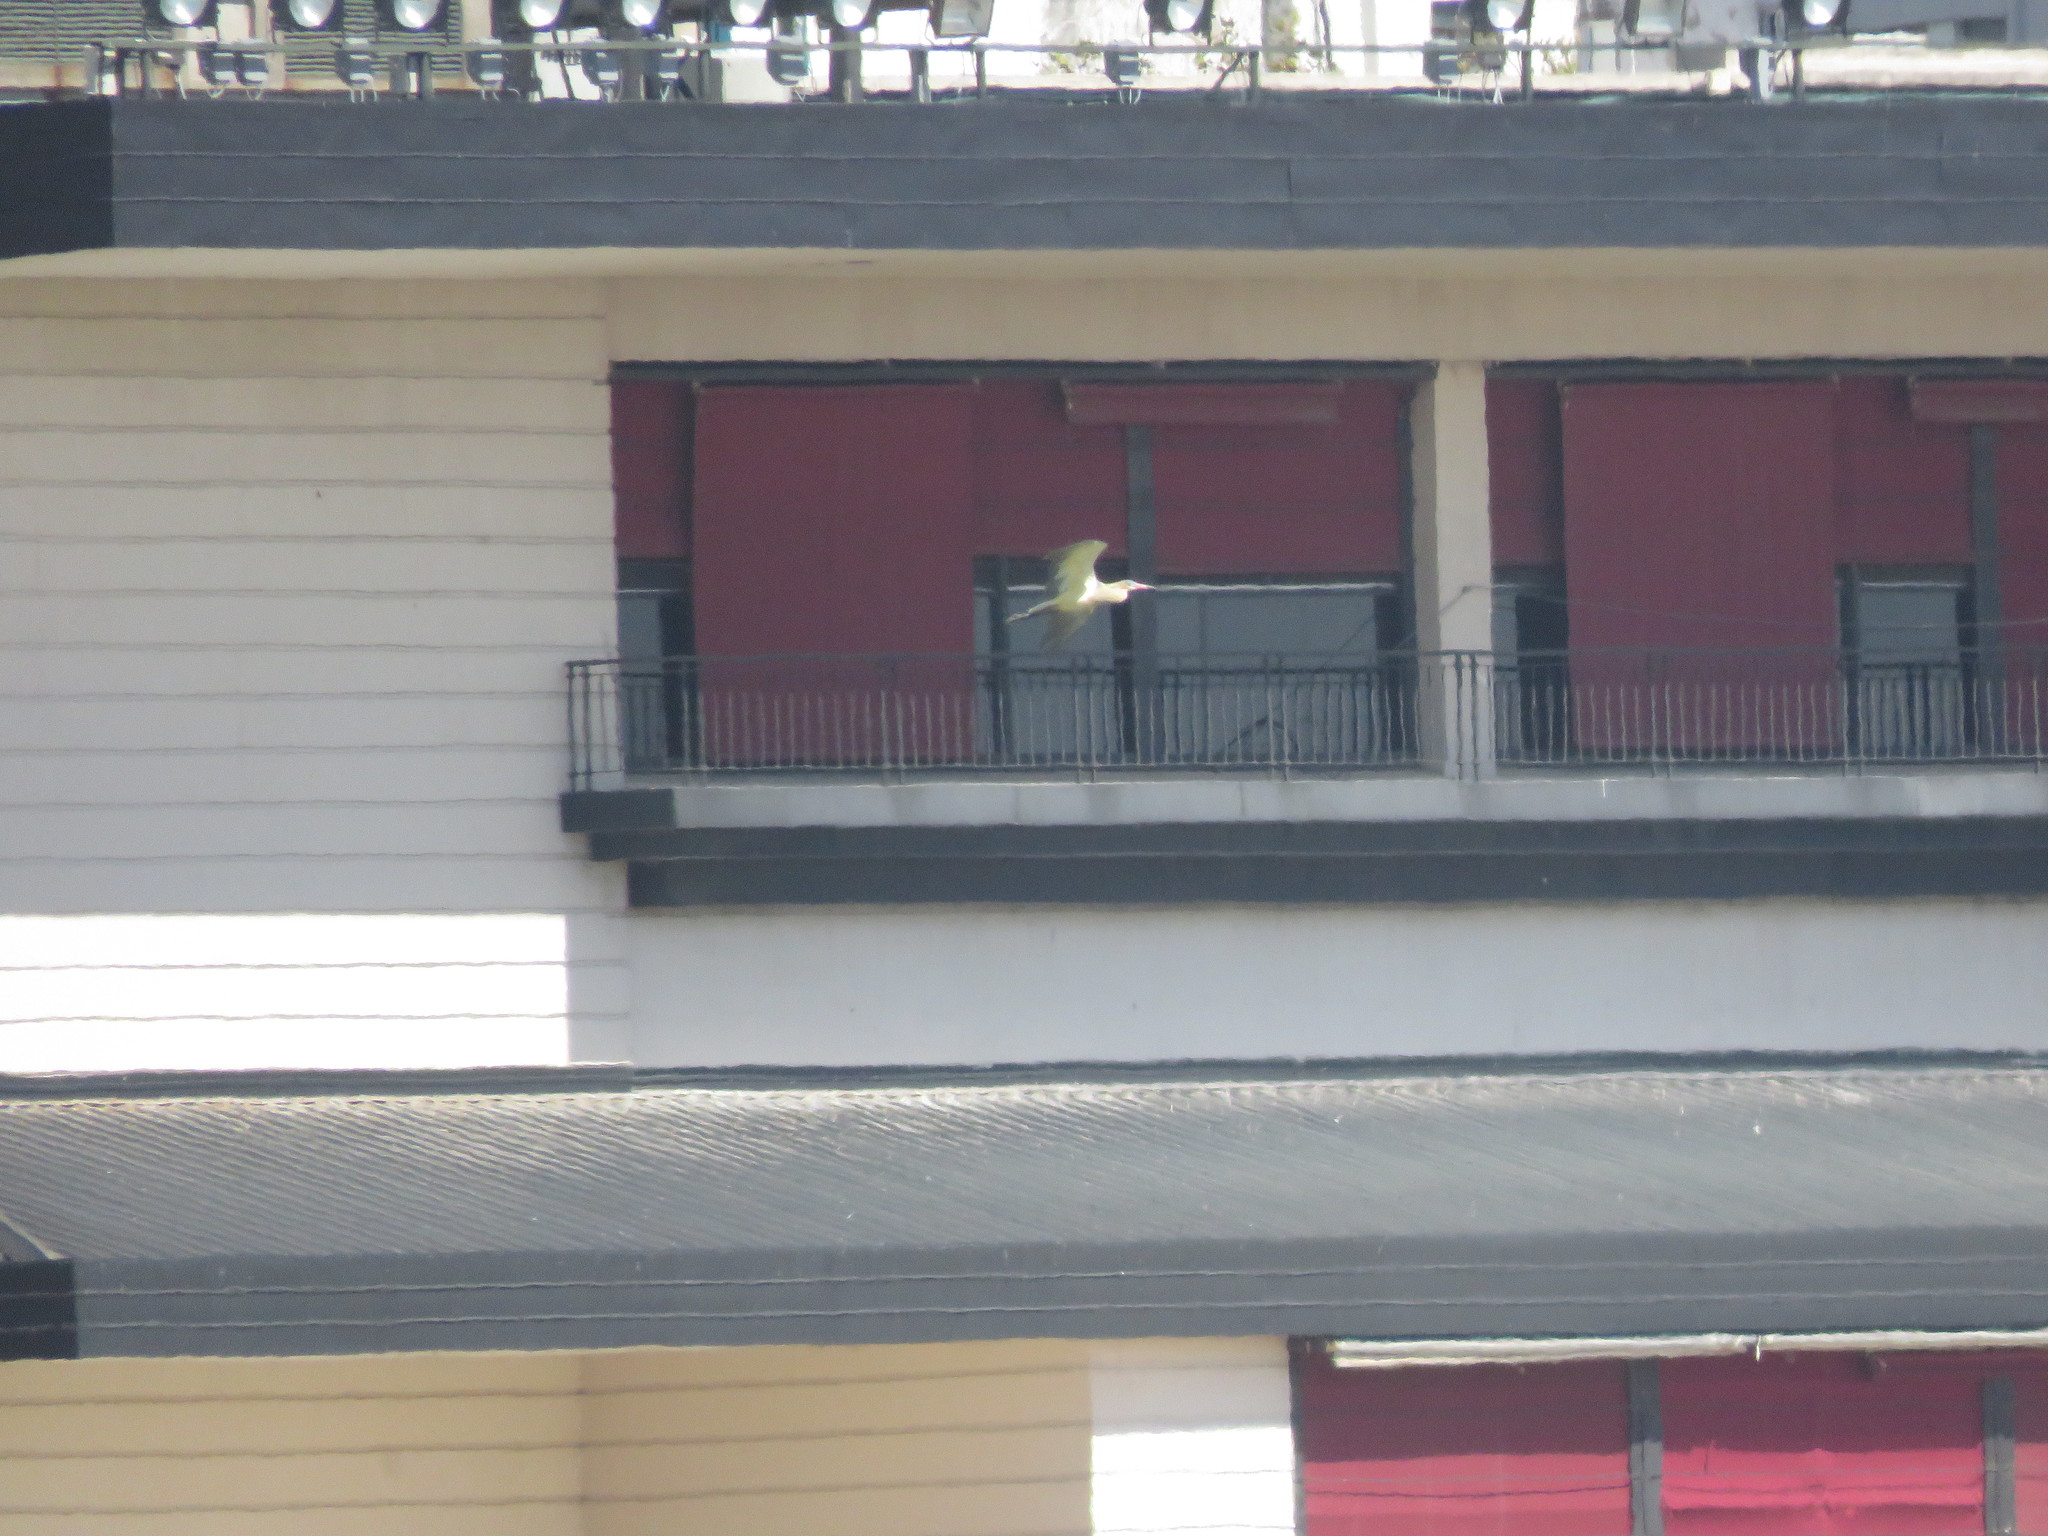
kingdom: Animalia
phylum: Chordata
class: Aves
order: Pelecaniformes
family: Ardeidae
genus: Syrigma
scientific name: Syrigma sibilatrix
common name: Whistling heron
